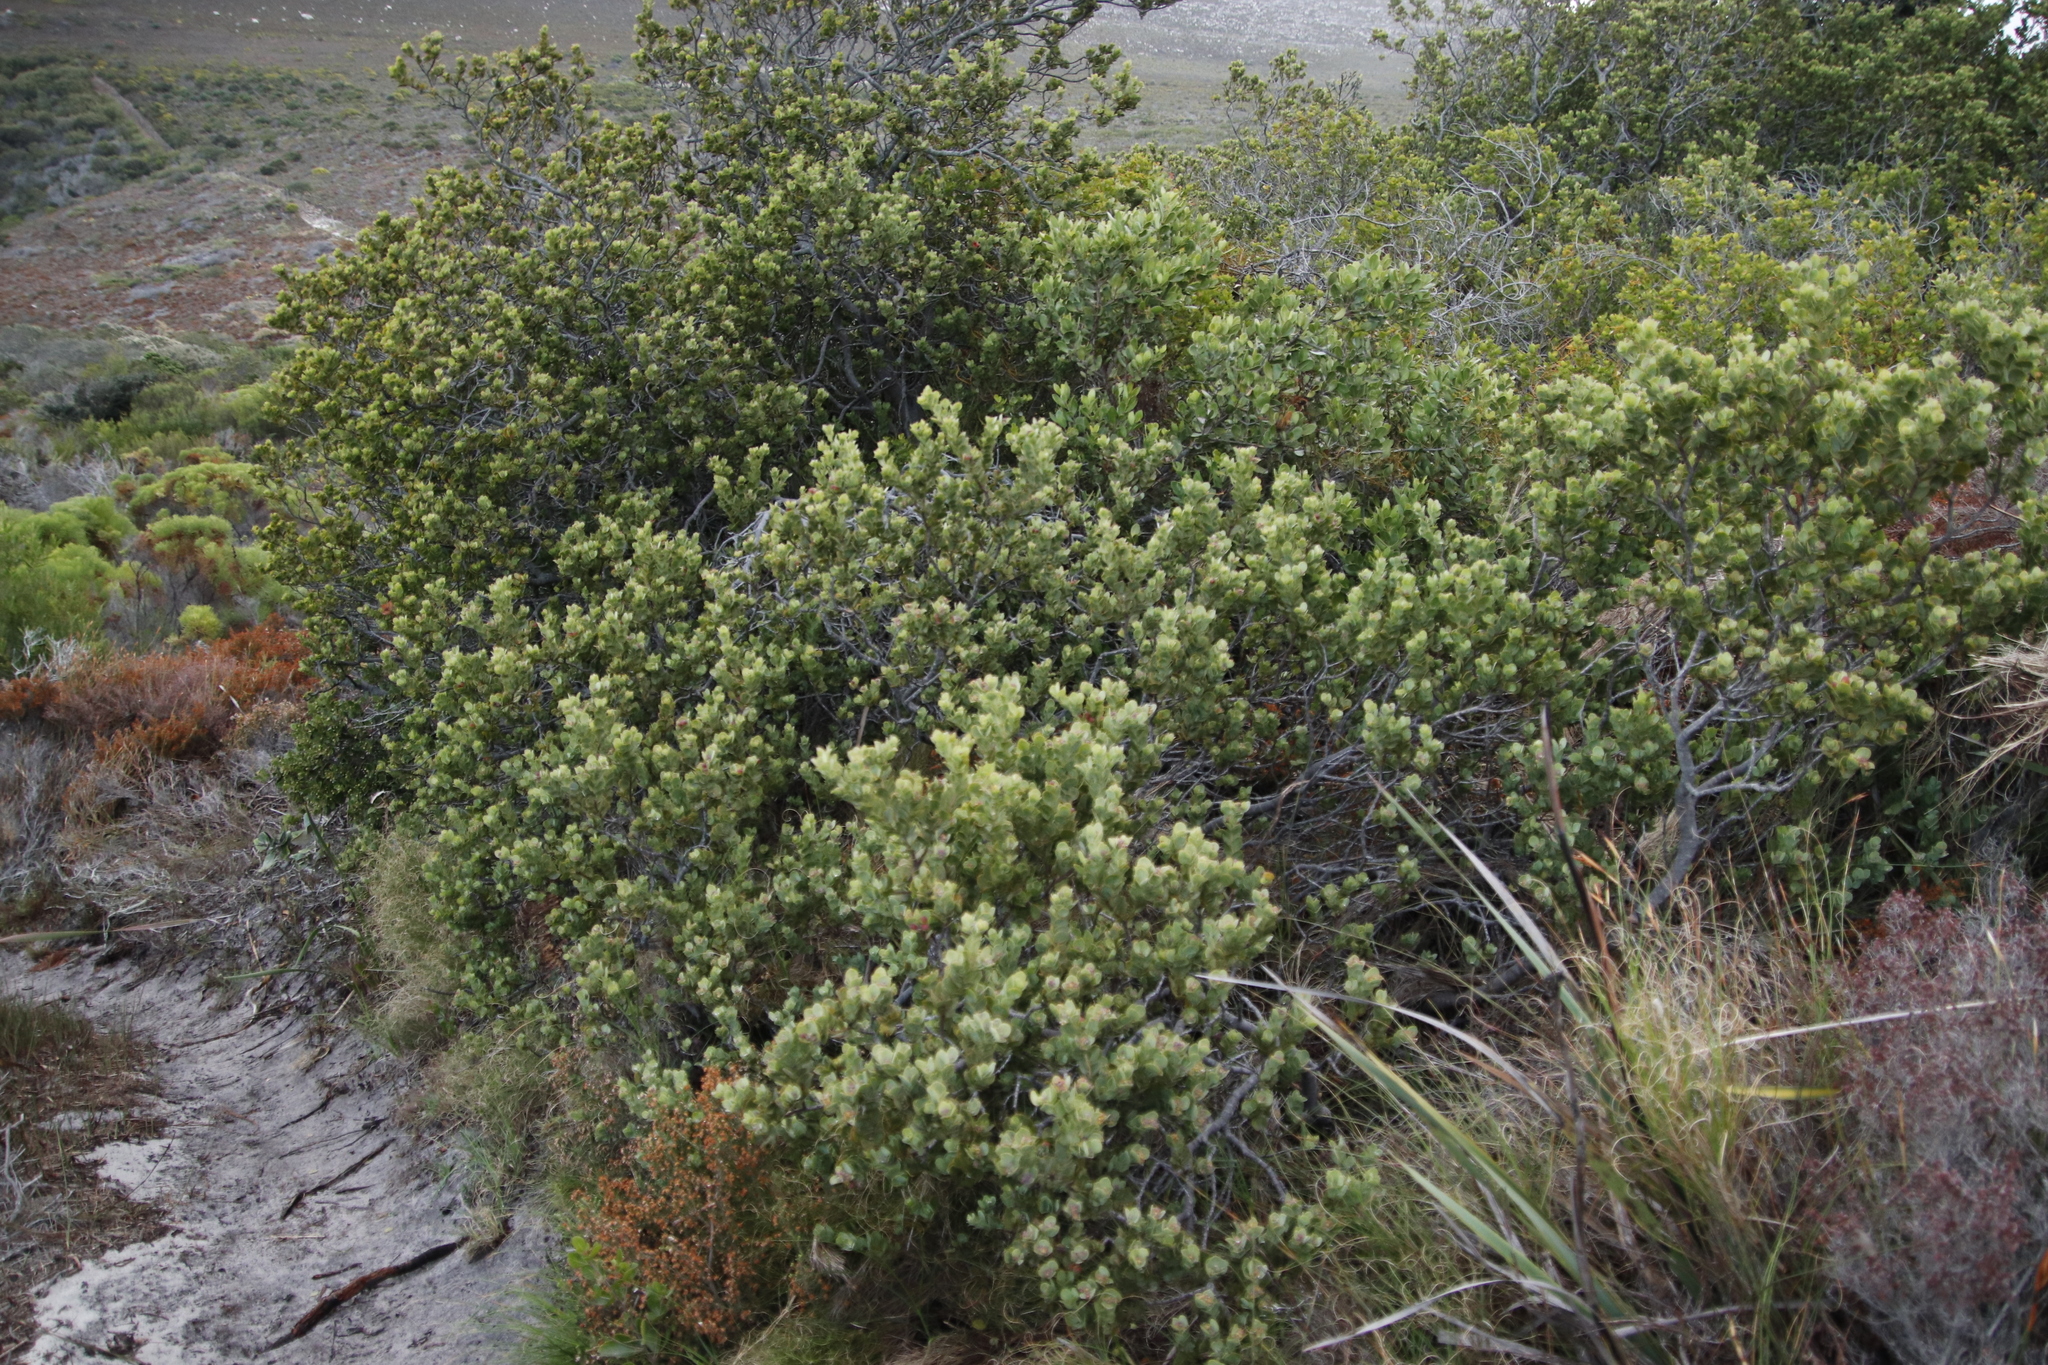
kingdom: Plantae
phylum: Tracheophyta
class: Magnoliopsida
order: Santalales
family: Santalaceae
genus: Osyris
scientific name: Osyris compressa
